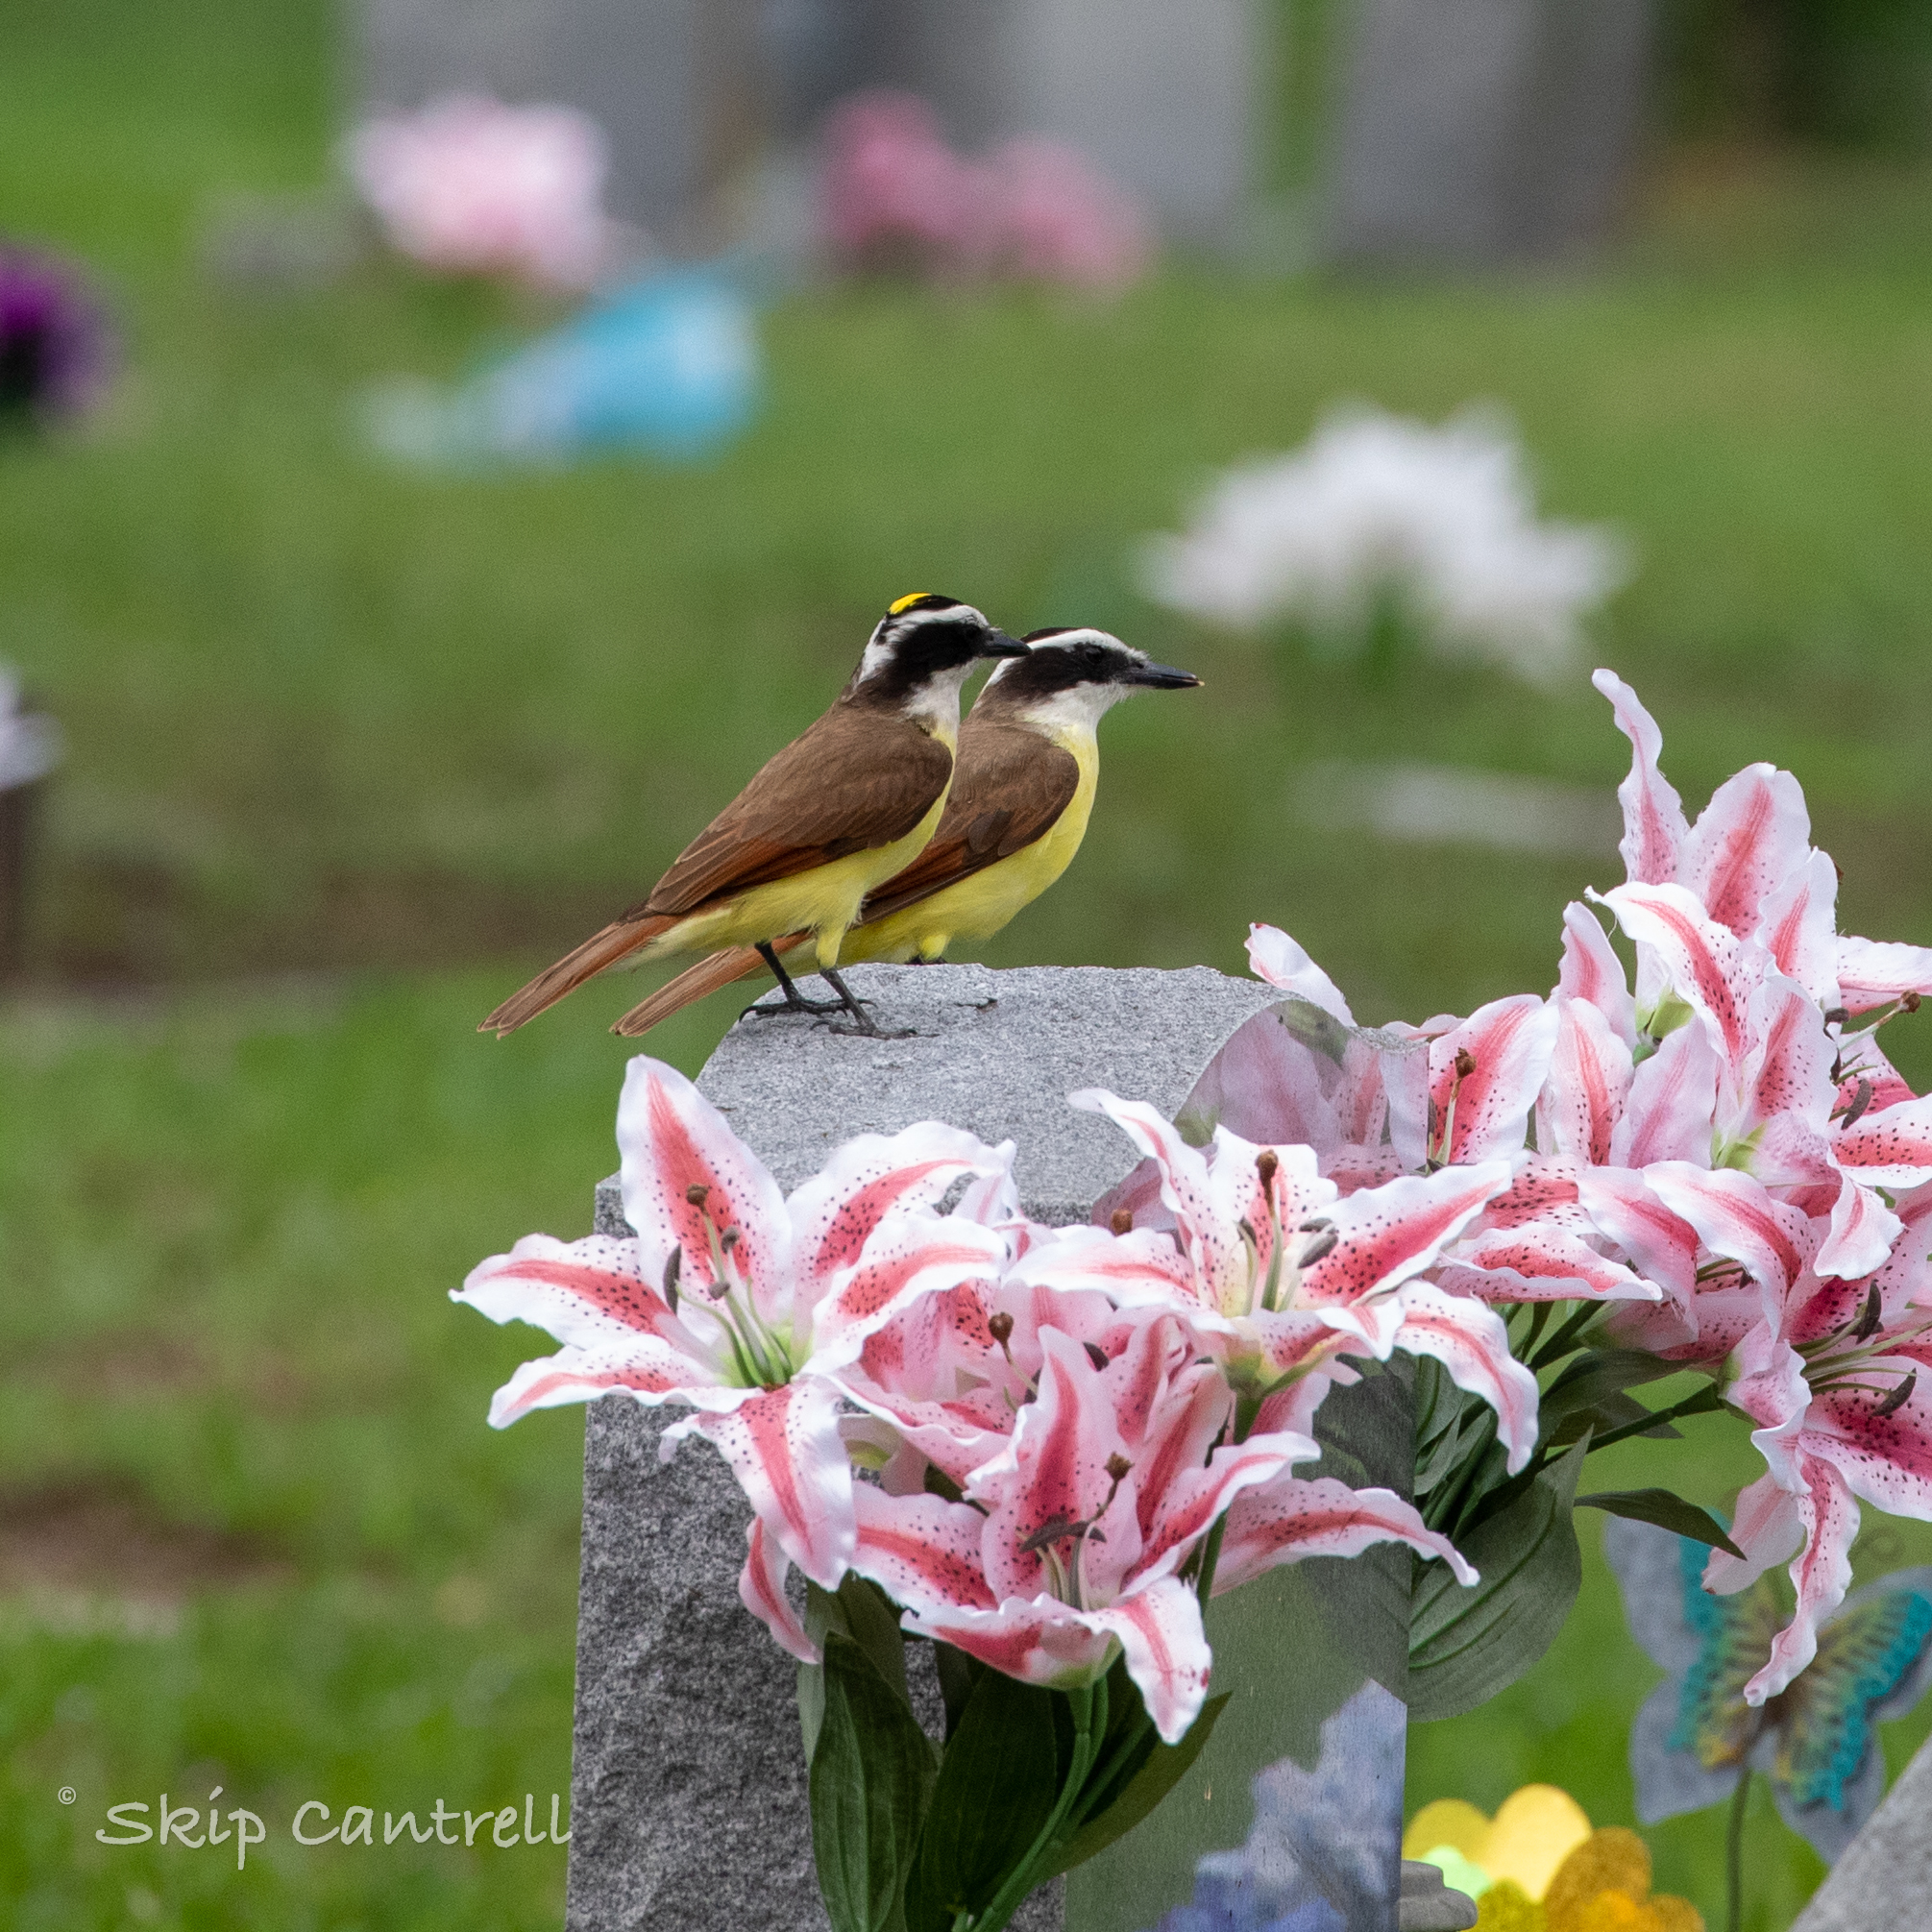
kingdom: Animalia
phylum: Chordata
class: Aves
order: Passeriformes
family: Tyrannidae
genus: Pitangus
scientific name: Pitangus sulphuratus
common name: Great kiskadee
